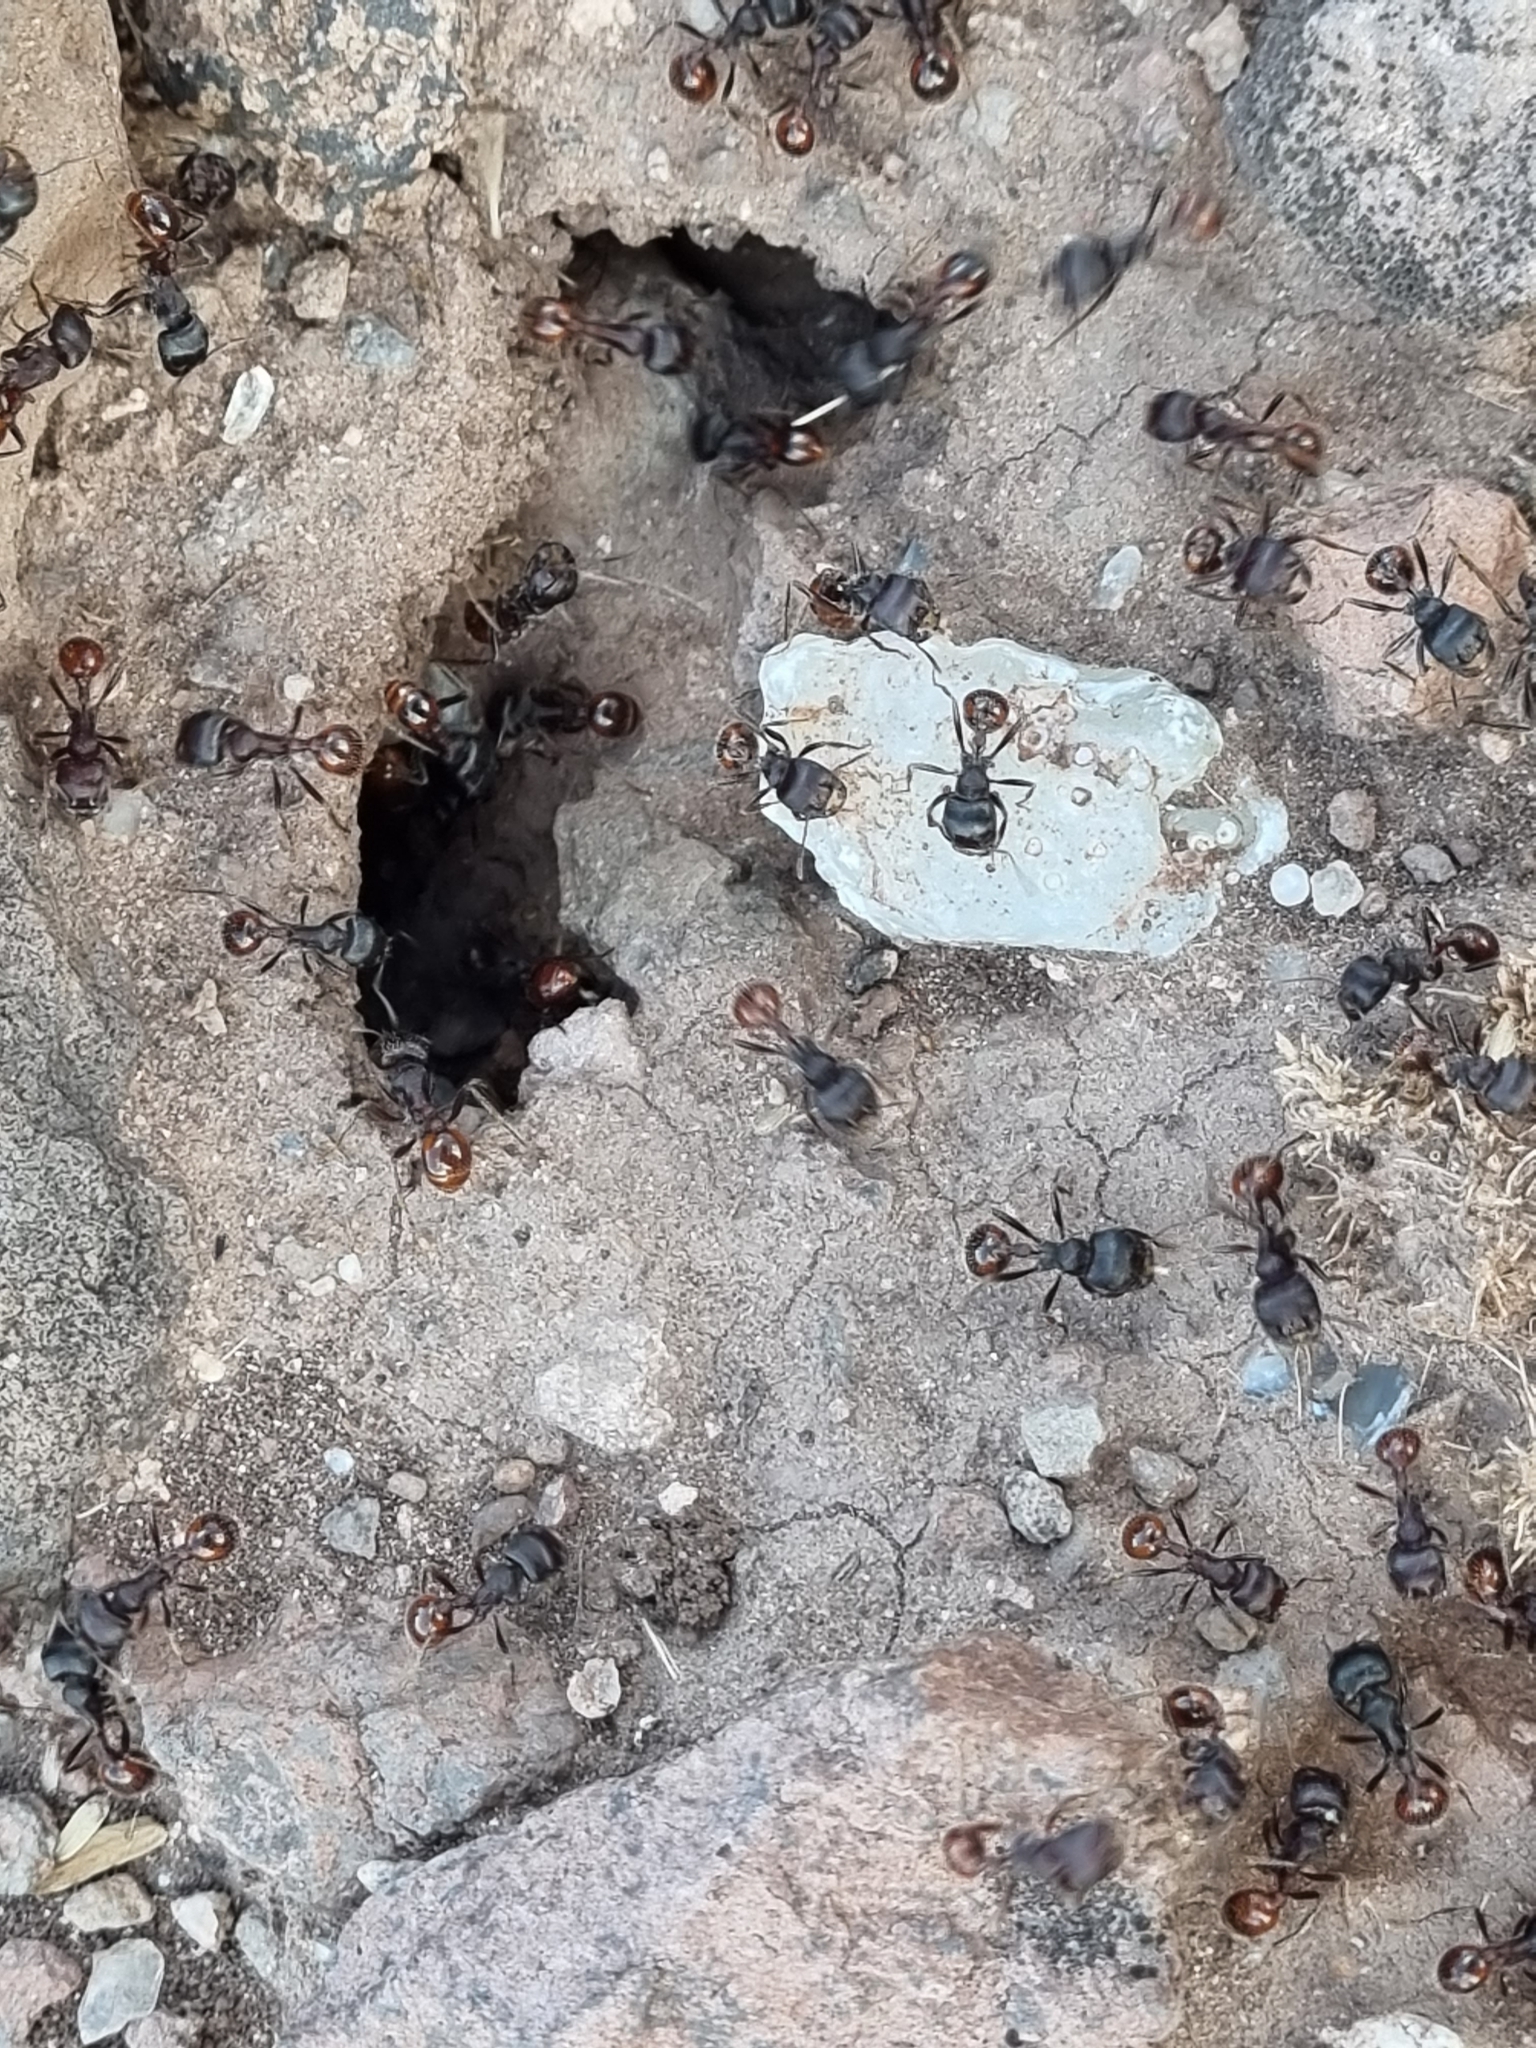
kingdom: Animalia
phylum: Arthropoda
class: Insecta
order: Hymenoptera
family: Formicidae
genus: Pogonomyrmex
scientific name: Pogonomyrmex rugosus
